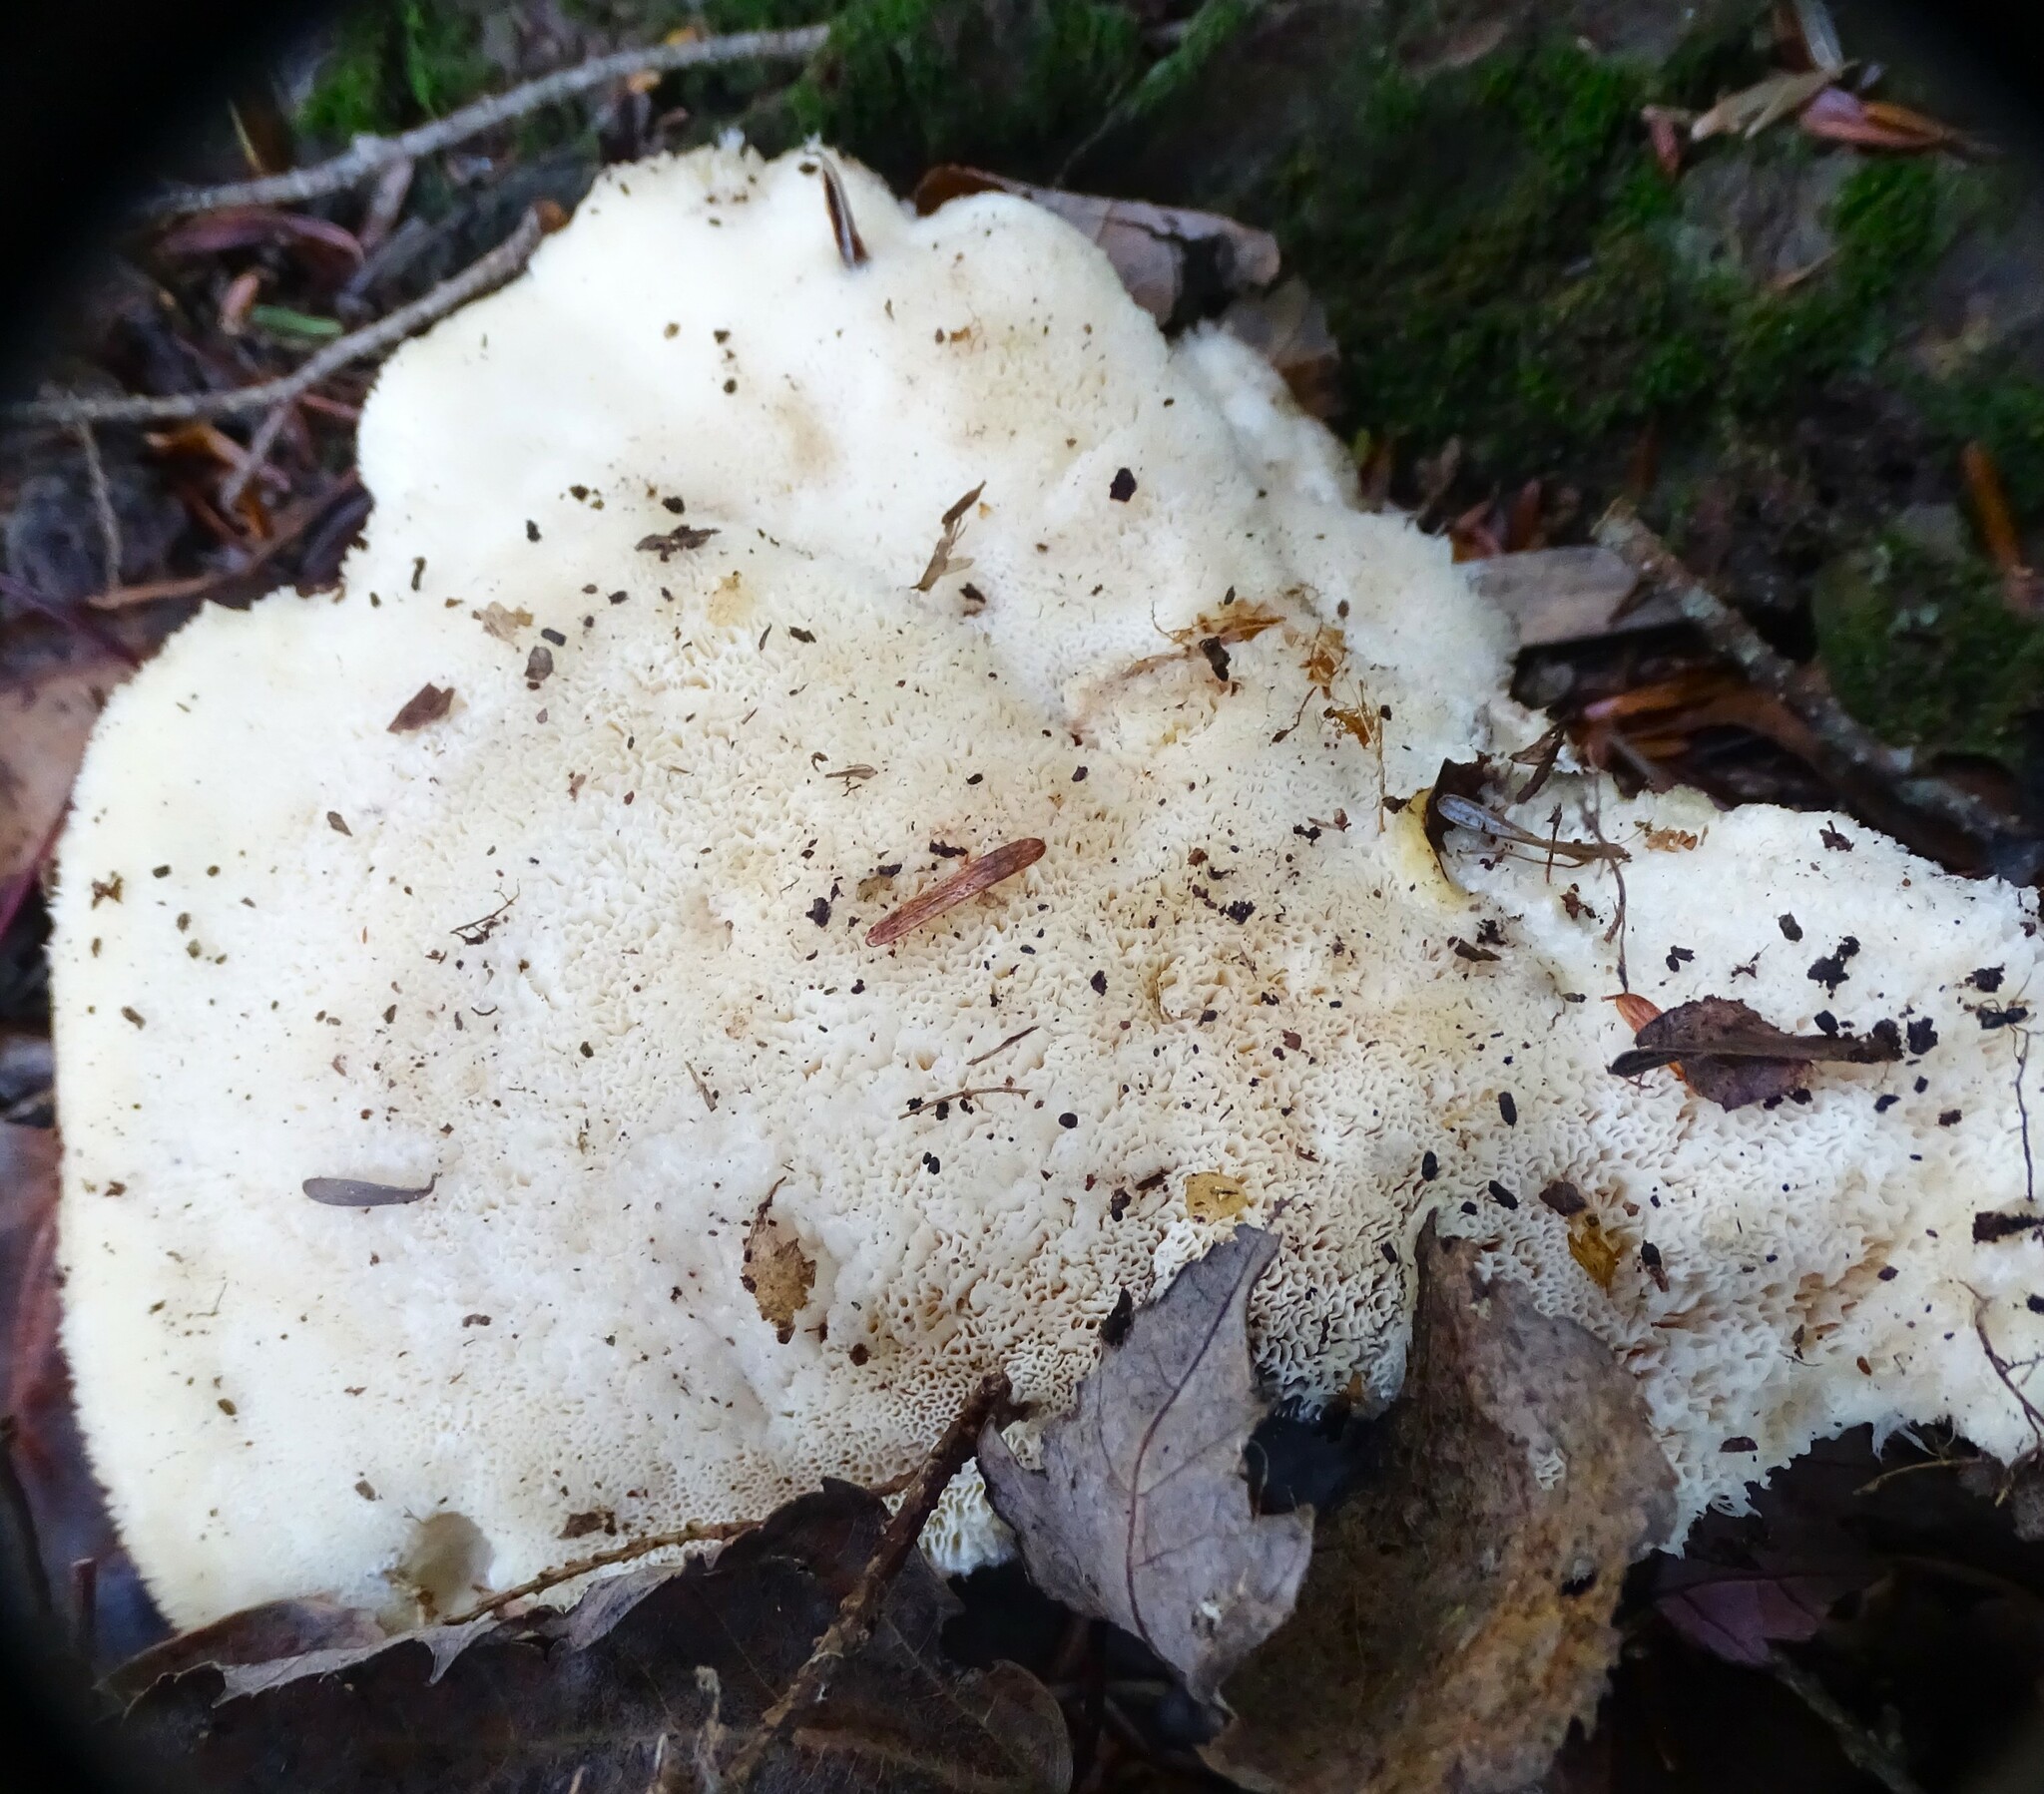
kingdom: Fungi
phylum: Basidiomycota
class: Agaricomycetes
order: Polyporales
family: Incrustoporiaceae
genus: Tyromyces
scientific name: Tyromyces chioneus
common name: White cheese polypore
